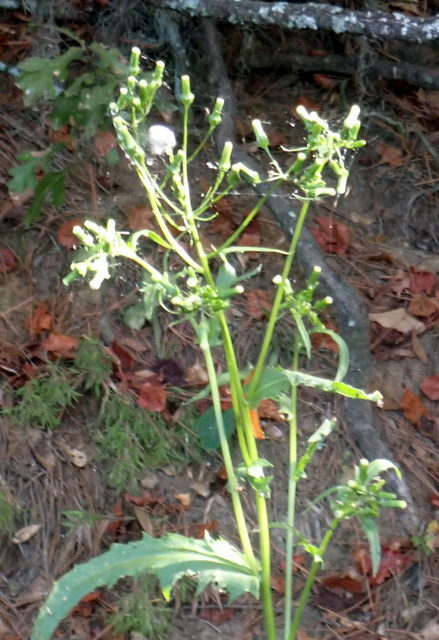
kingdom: Plantae
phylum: Tracheophyta
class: Magnoliopsida
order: Asterales
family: Asteraceae
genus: Erechtites
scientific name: Erechtites hieraciifolius
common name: American burnweed
